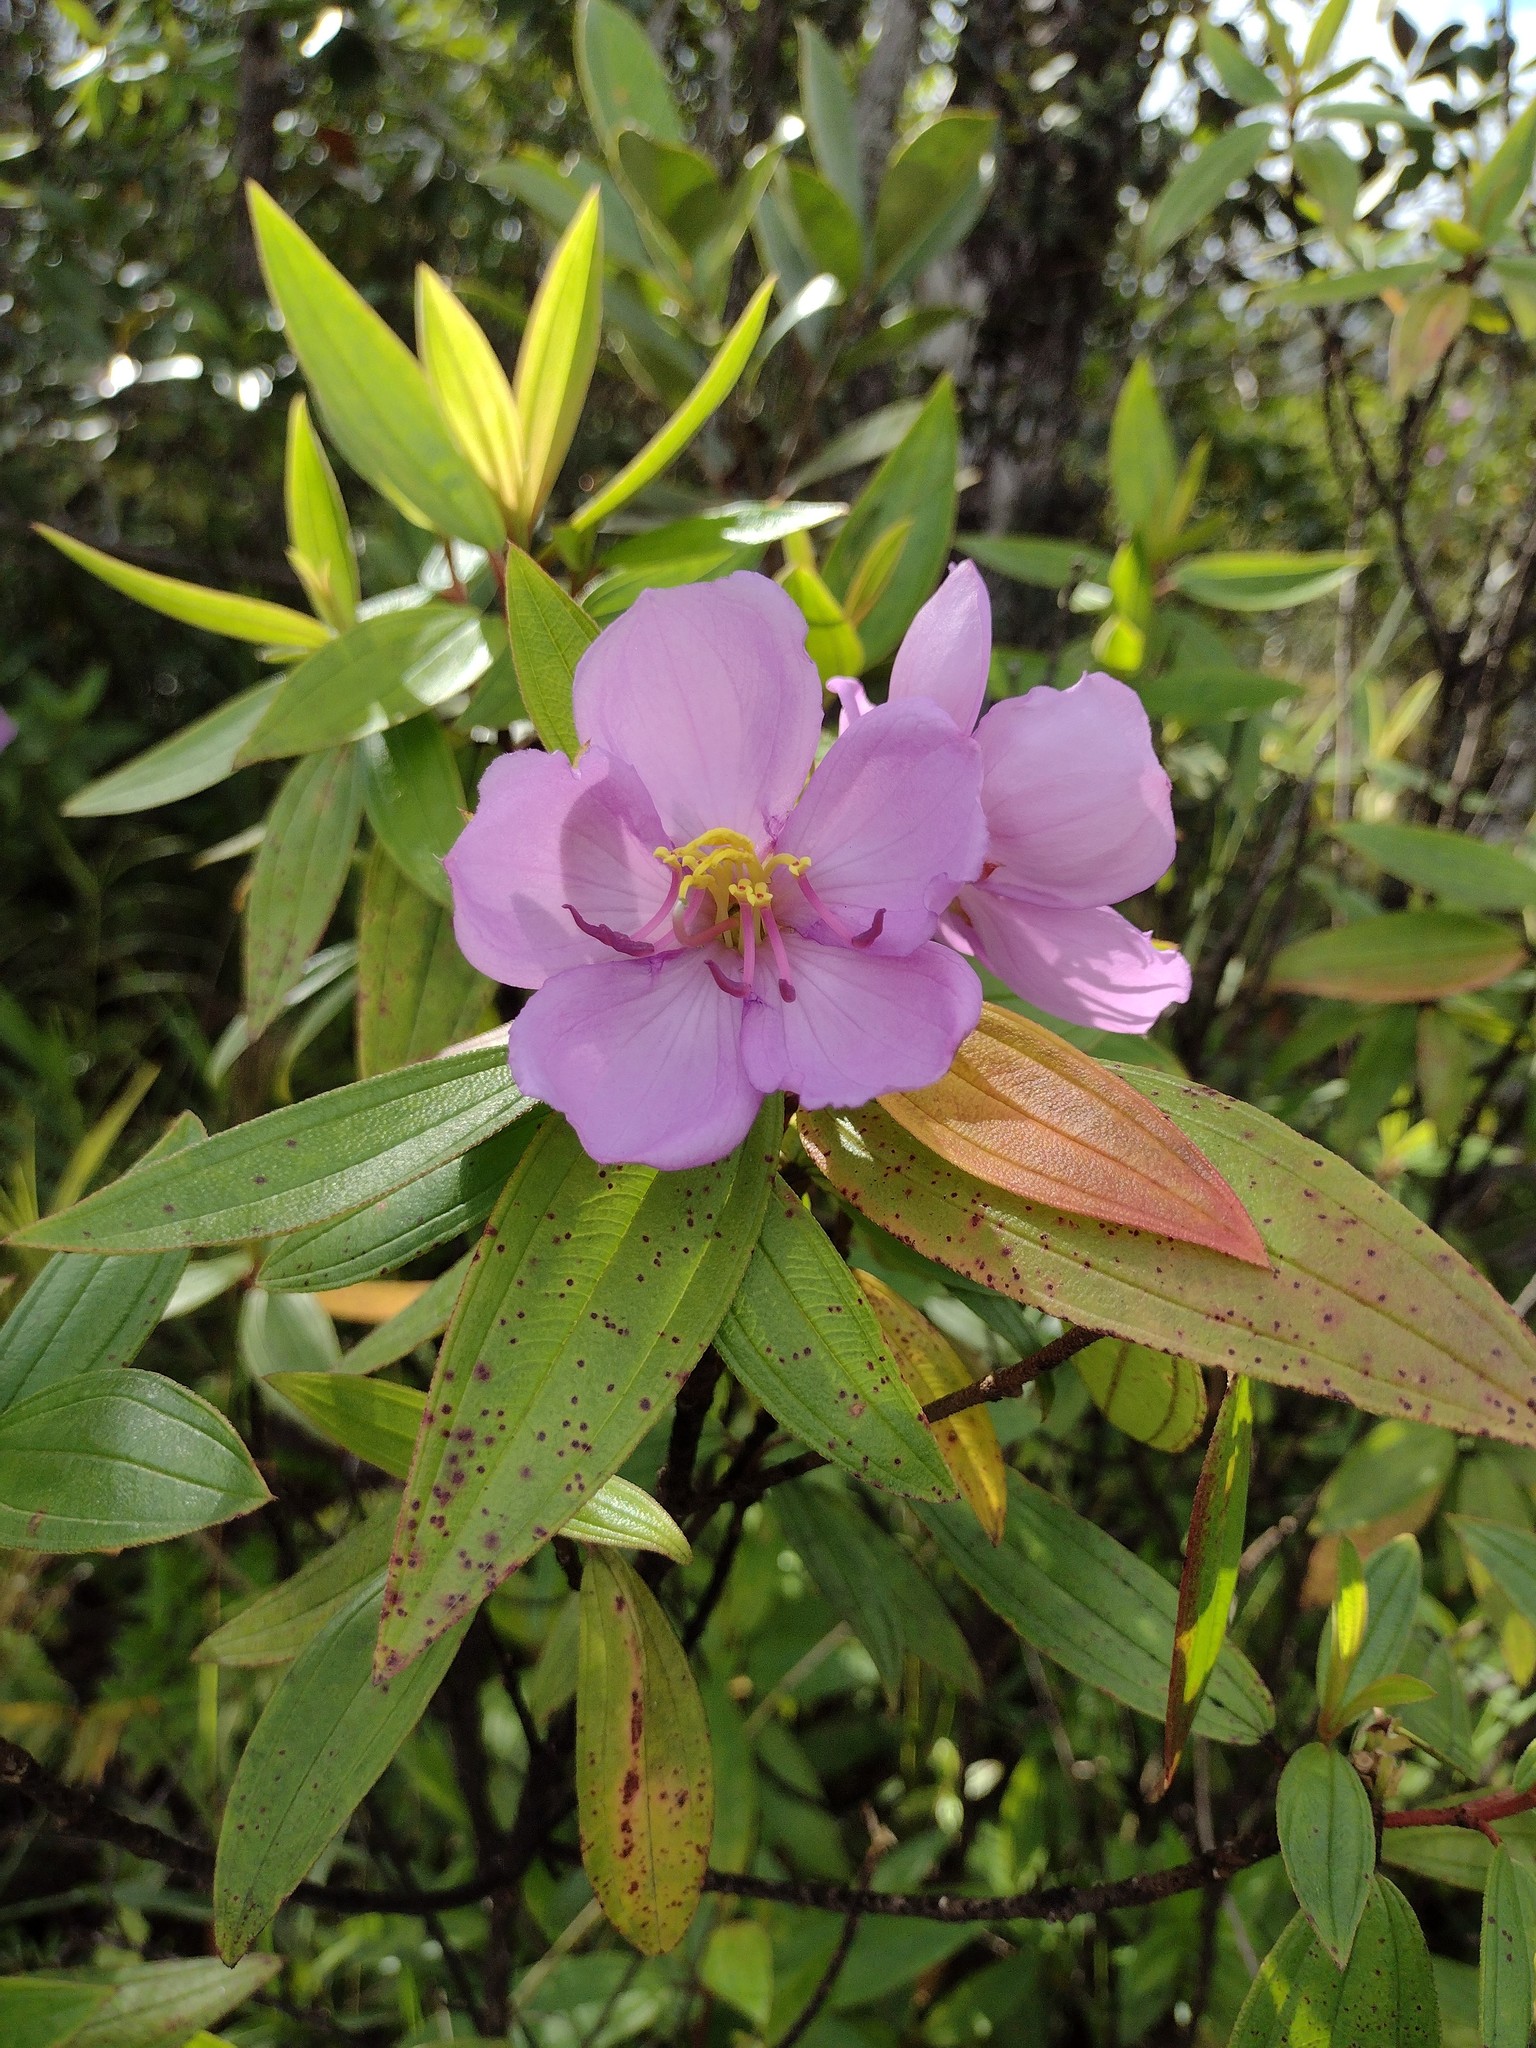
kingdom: Plantae
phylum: Tracheophyta
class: Magnoliopsida
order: Myrtales
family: Melastomataceae
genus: Melastoma
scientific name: Melastoma malabathricum
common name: Indian-rhododendron
